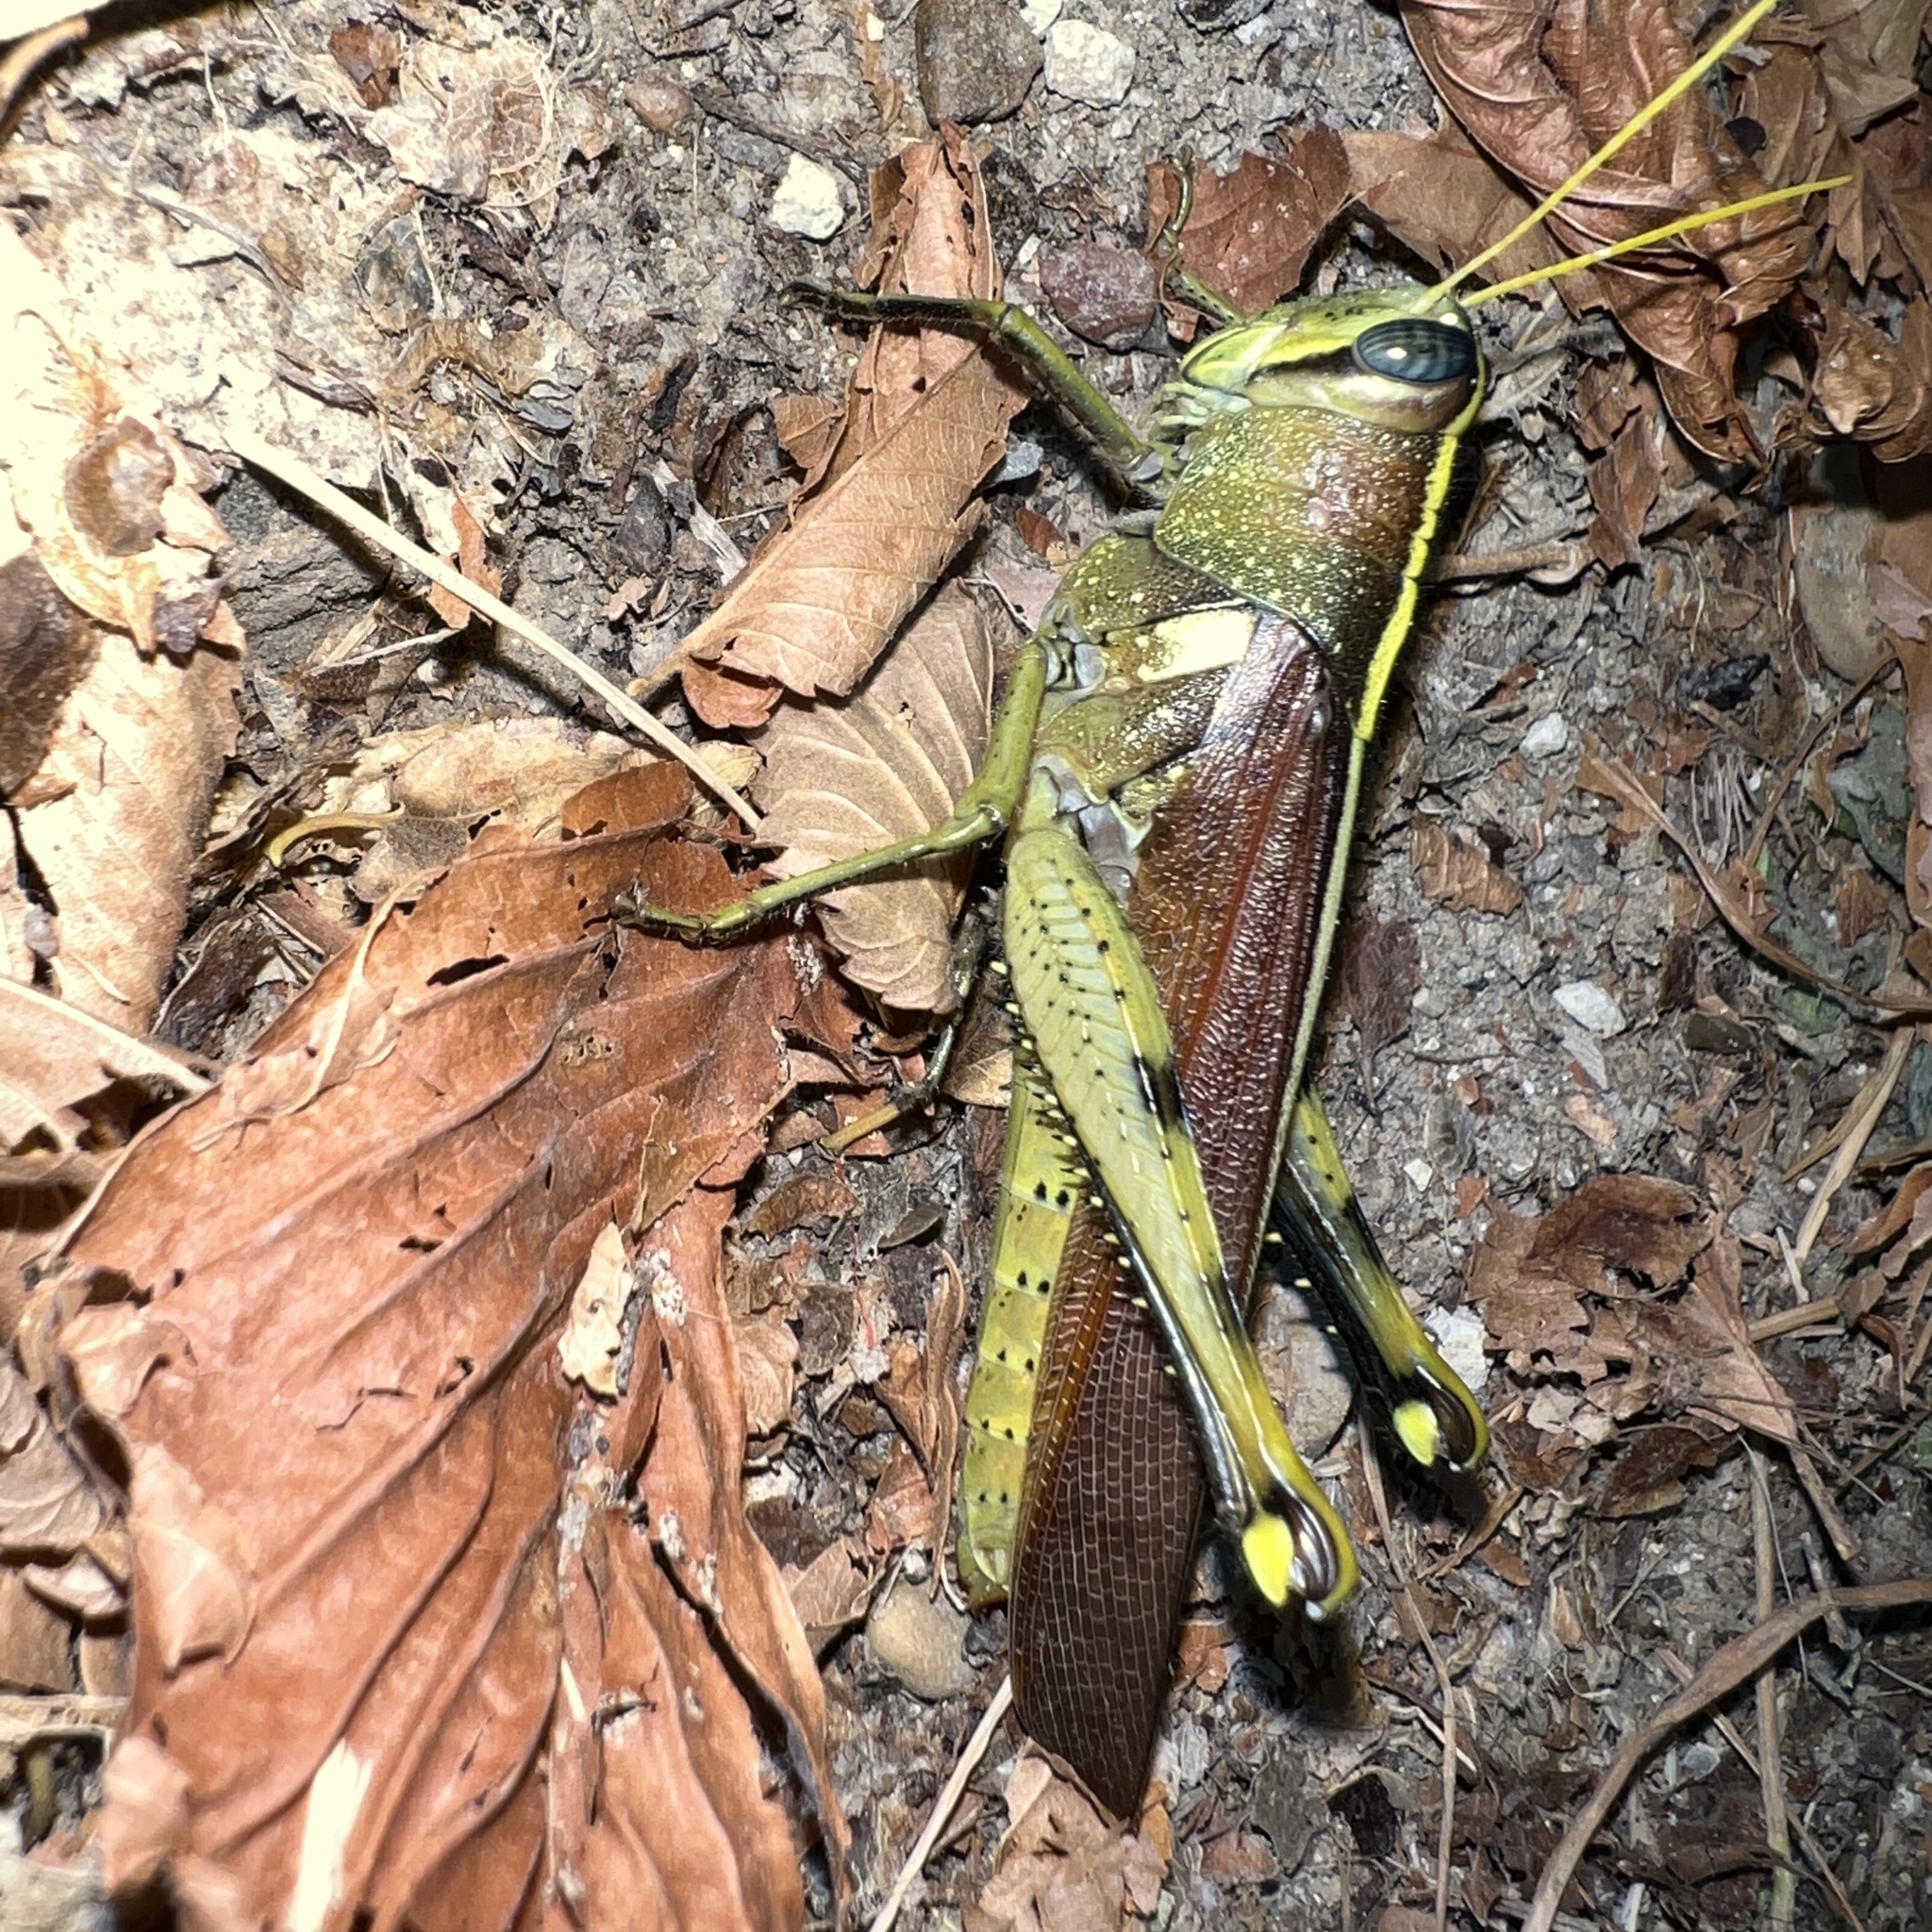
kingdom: Animalia
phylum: Arthropoda
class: Insecta
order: Orthoptera
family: Acrididae
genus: Schistocerca
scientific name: Schistocerca obscura
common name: Obscure bird grasshopper
